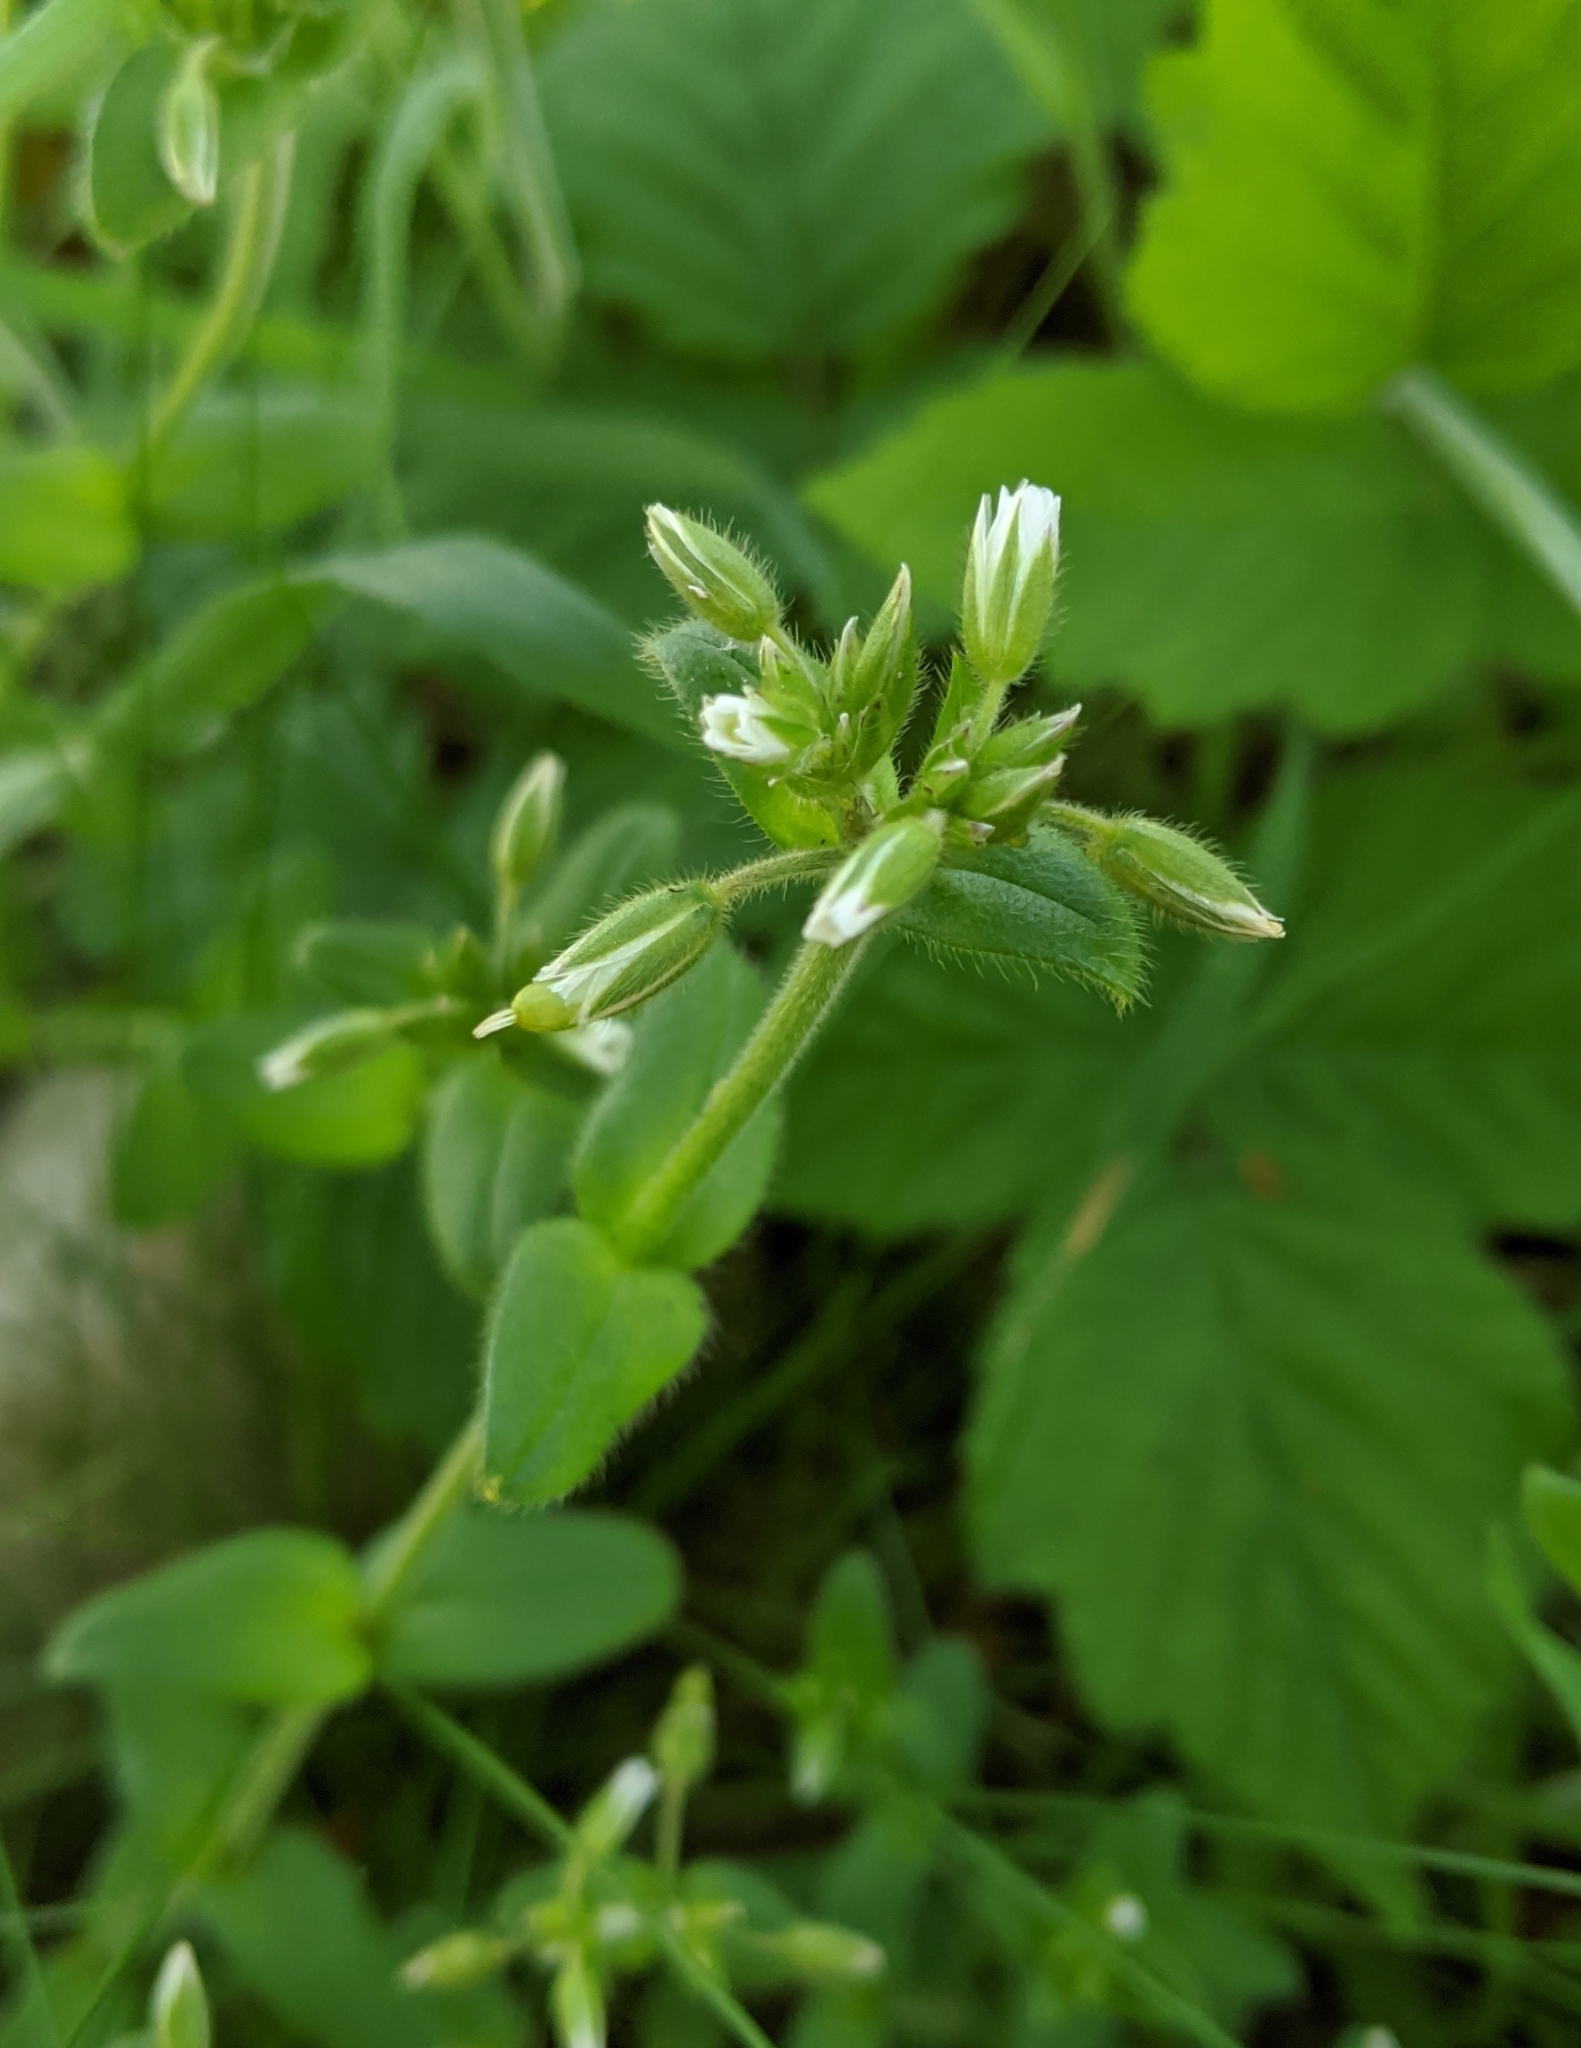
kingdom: Plantae
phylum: Tracheophyta
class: Magnoliopsida
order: Caryophyllales
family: Caryophyllaceae
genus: Cerastium
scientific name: Cerastium fontanum
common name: Common mouse-ear
